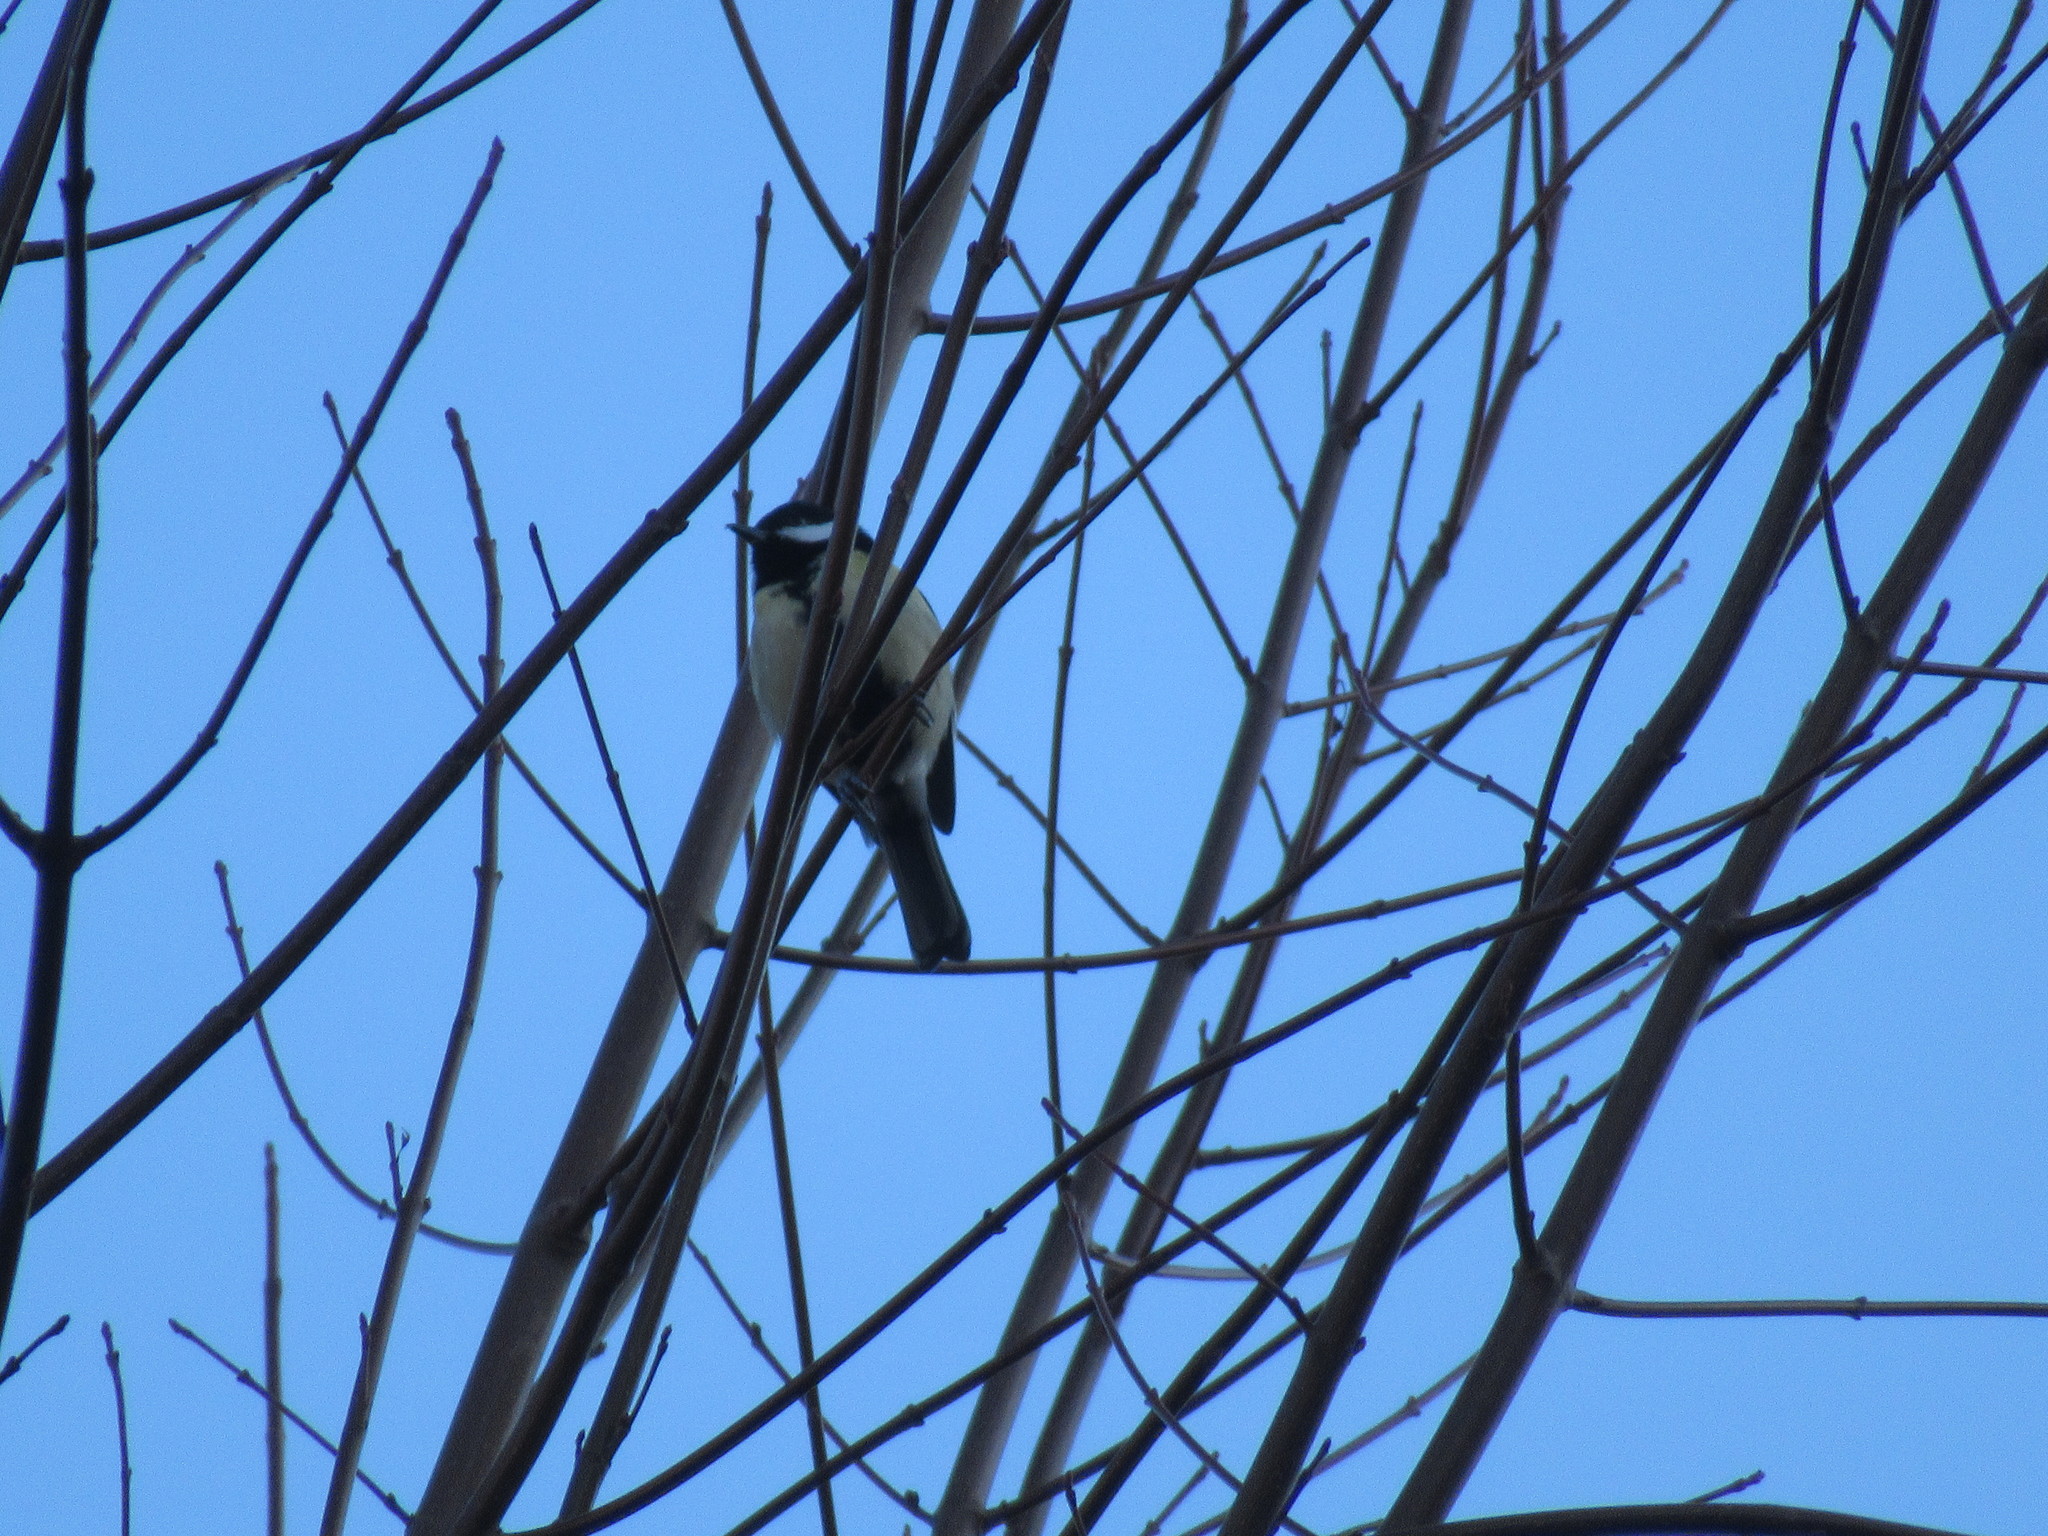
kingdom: Animalia
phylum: Chordata
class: Aves
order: Passeriformes
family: Paridae
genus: Parus
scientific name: Parus major
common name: Great tit
